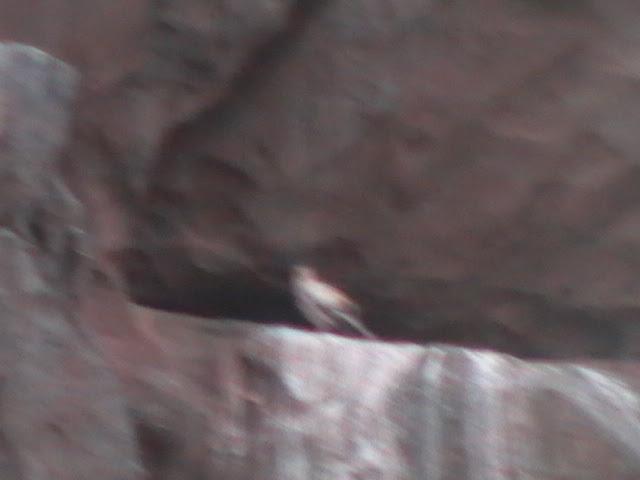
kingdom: Animalia
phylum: Chordata
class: Aves
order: Accipitriformes
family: Accipitridae
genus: Neophron
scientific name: Neophron percnopterus
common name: Egyptian vulture
